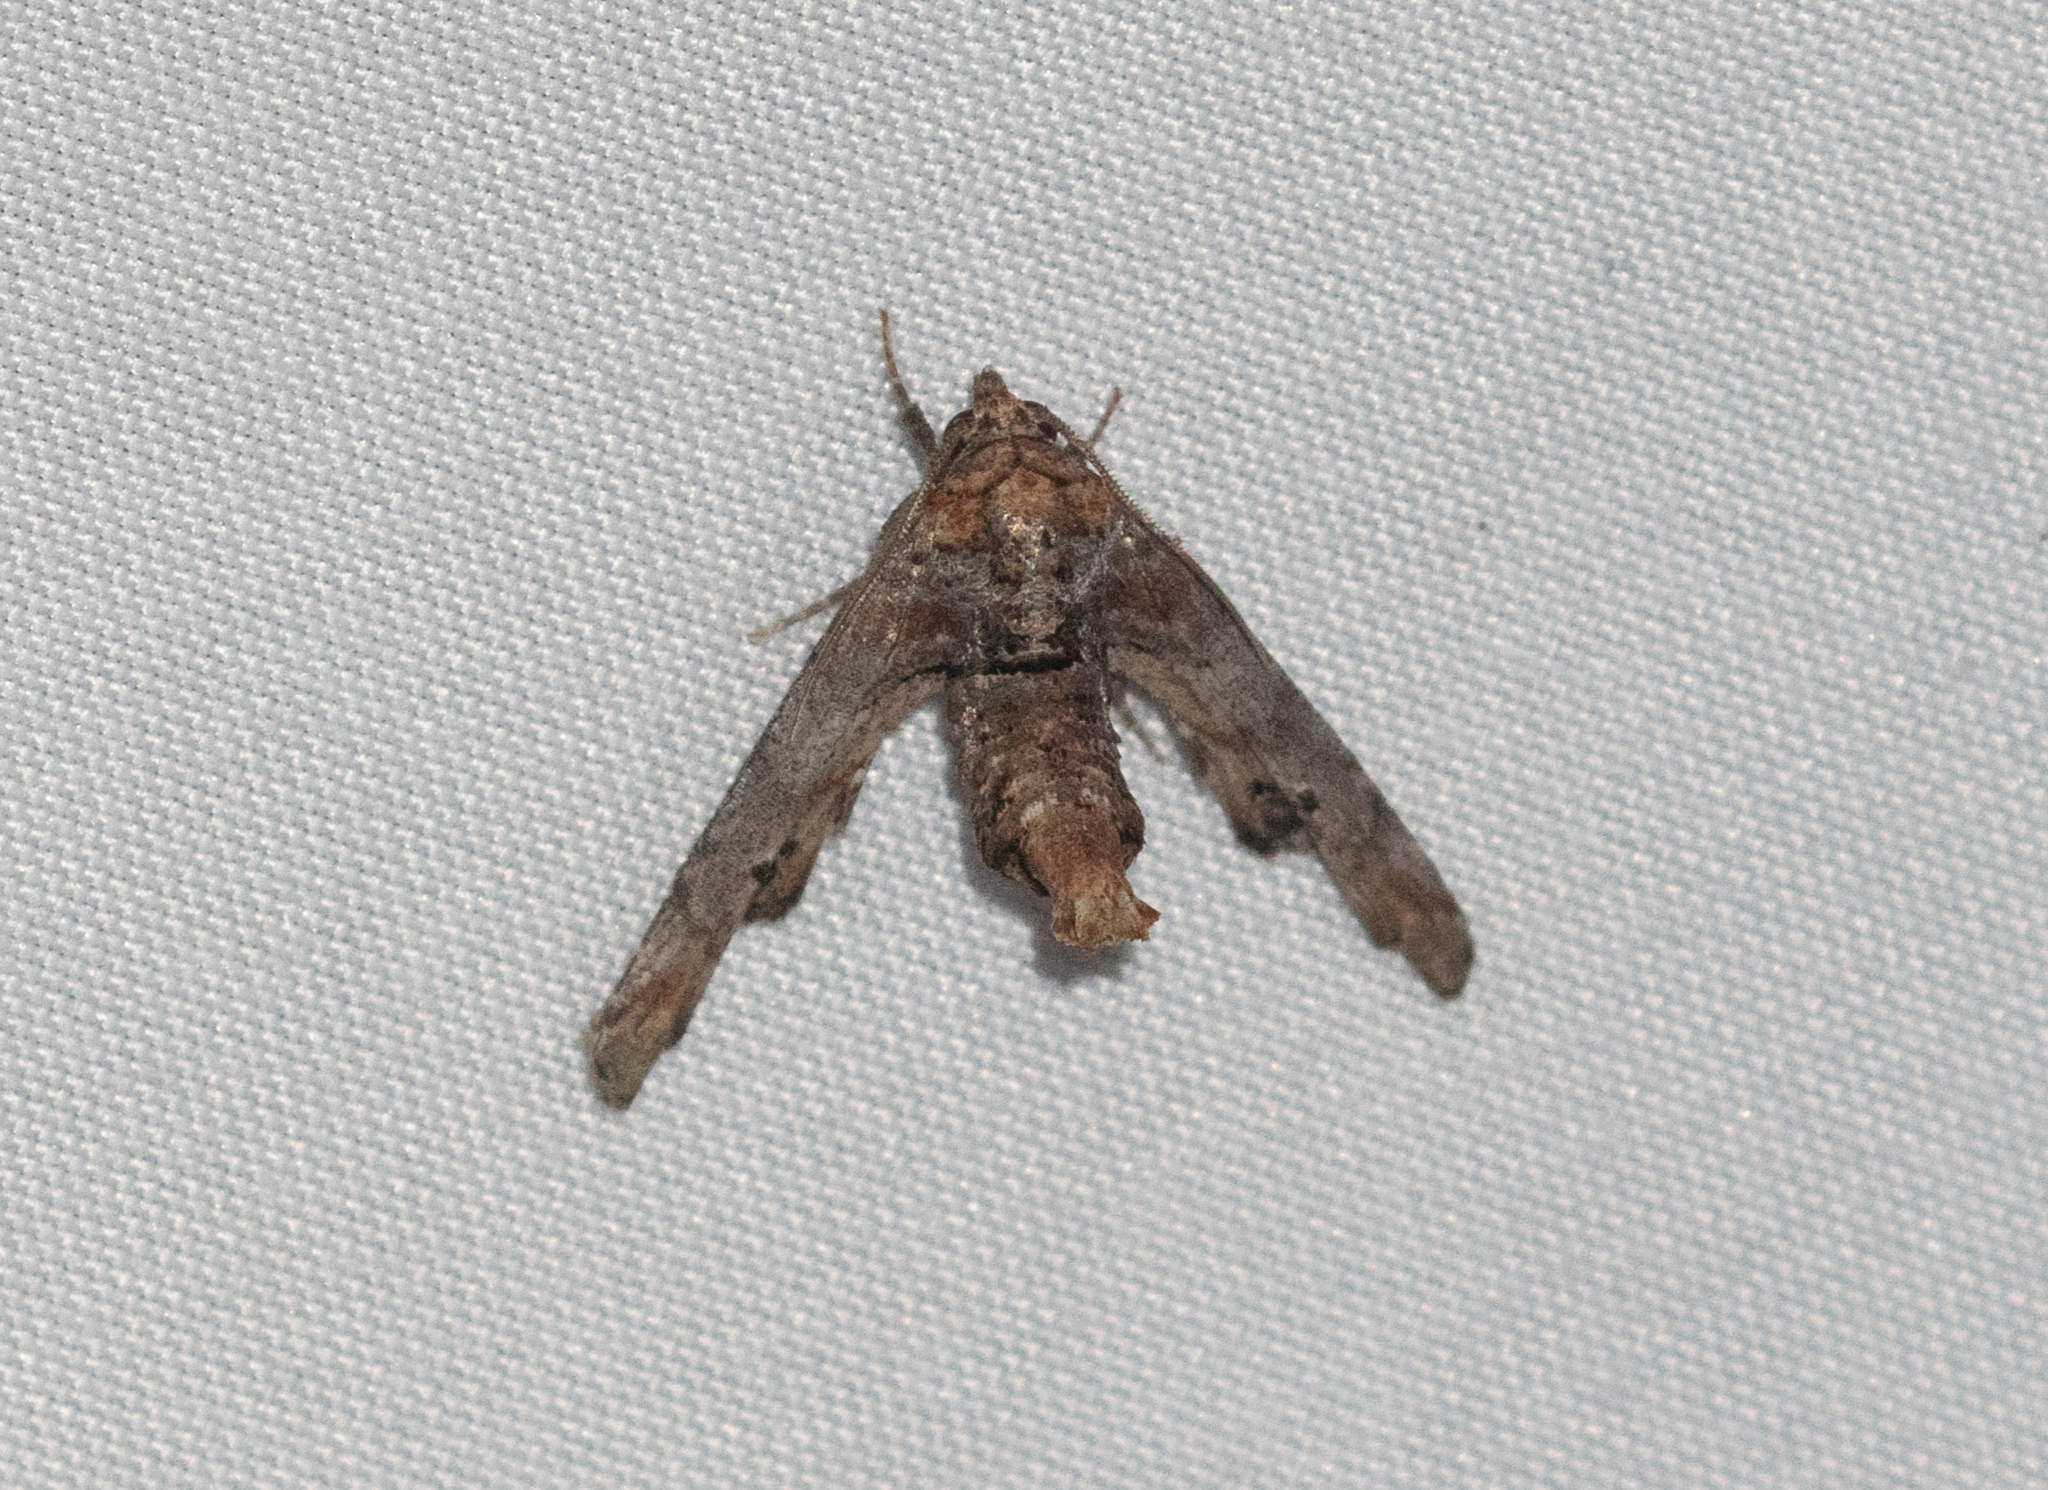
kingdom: Animalia
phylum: Arthropoda
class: Insecta
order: Lepidoptera
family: Euteliidae
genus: Marathyssa
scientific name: Marathyssa inficita
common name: Dark marathyssa moth
